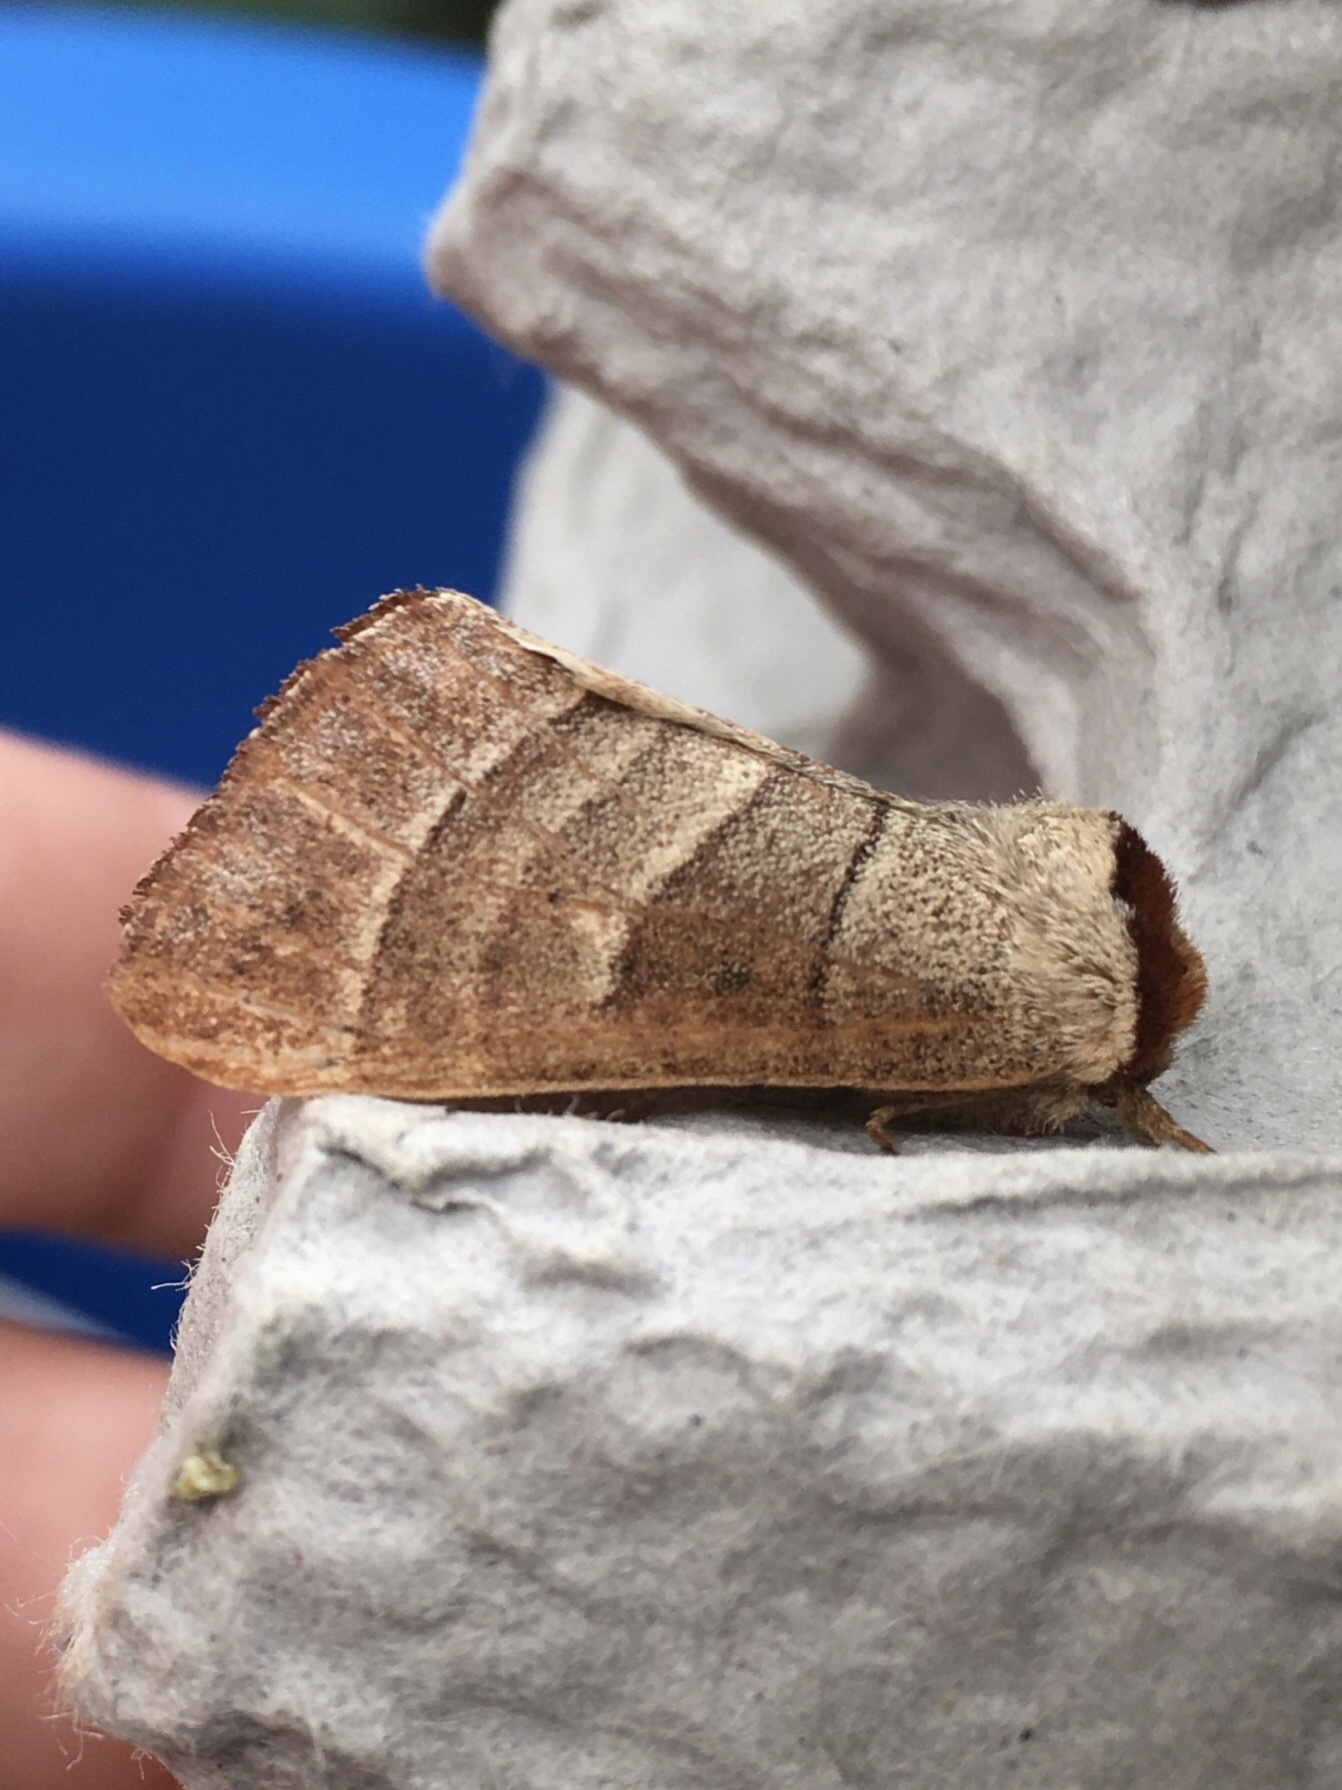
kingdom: Animalia
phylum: Arthropoda
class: Insecta
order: Lepidoptera
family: Notodontidae
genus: Datana
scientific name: Datana integerrima
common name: Walnut caterpillar
